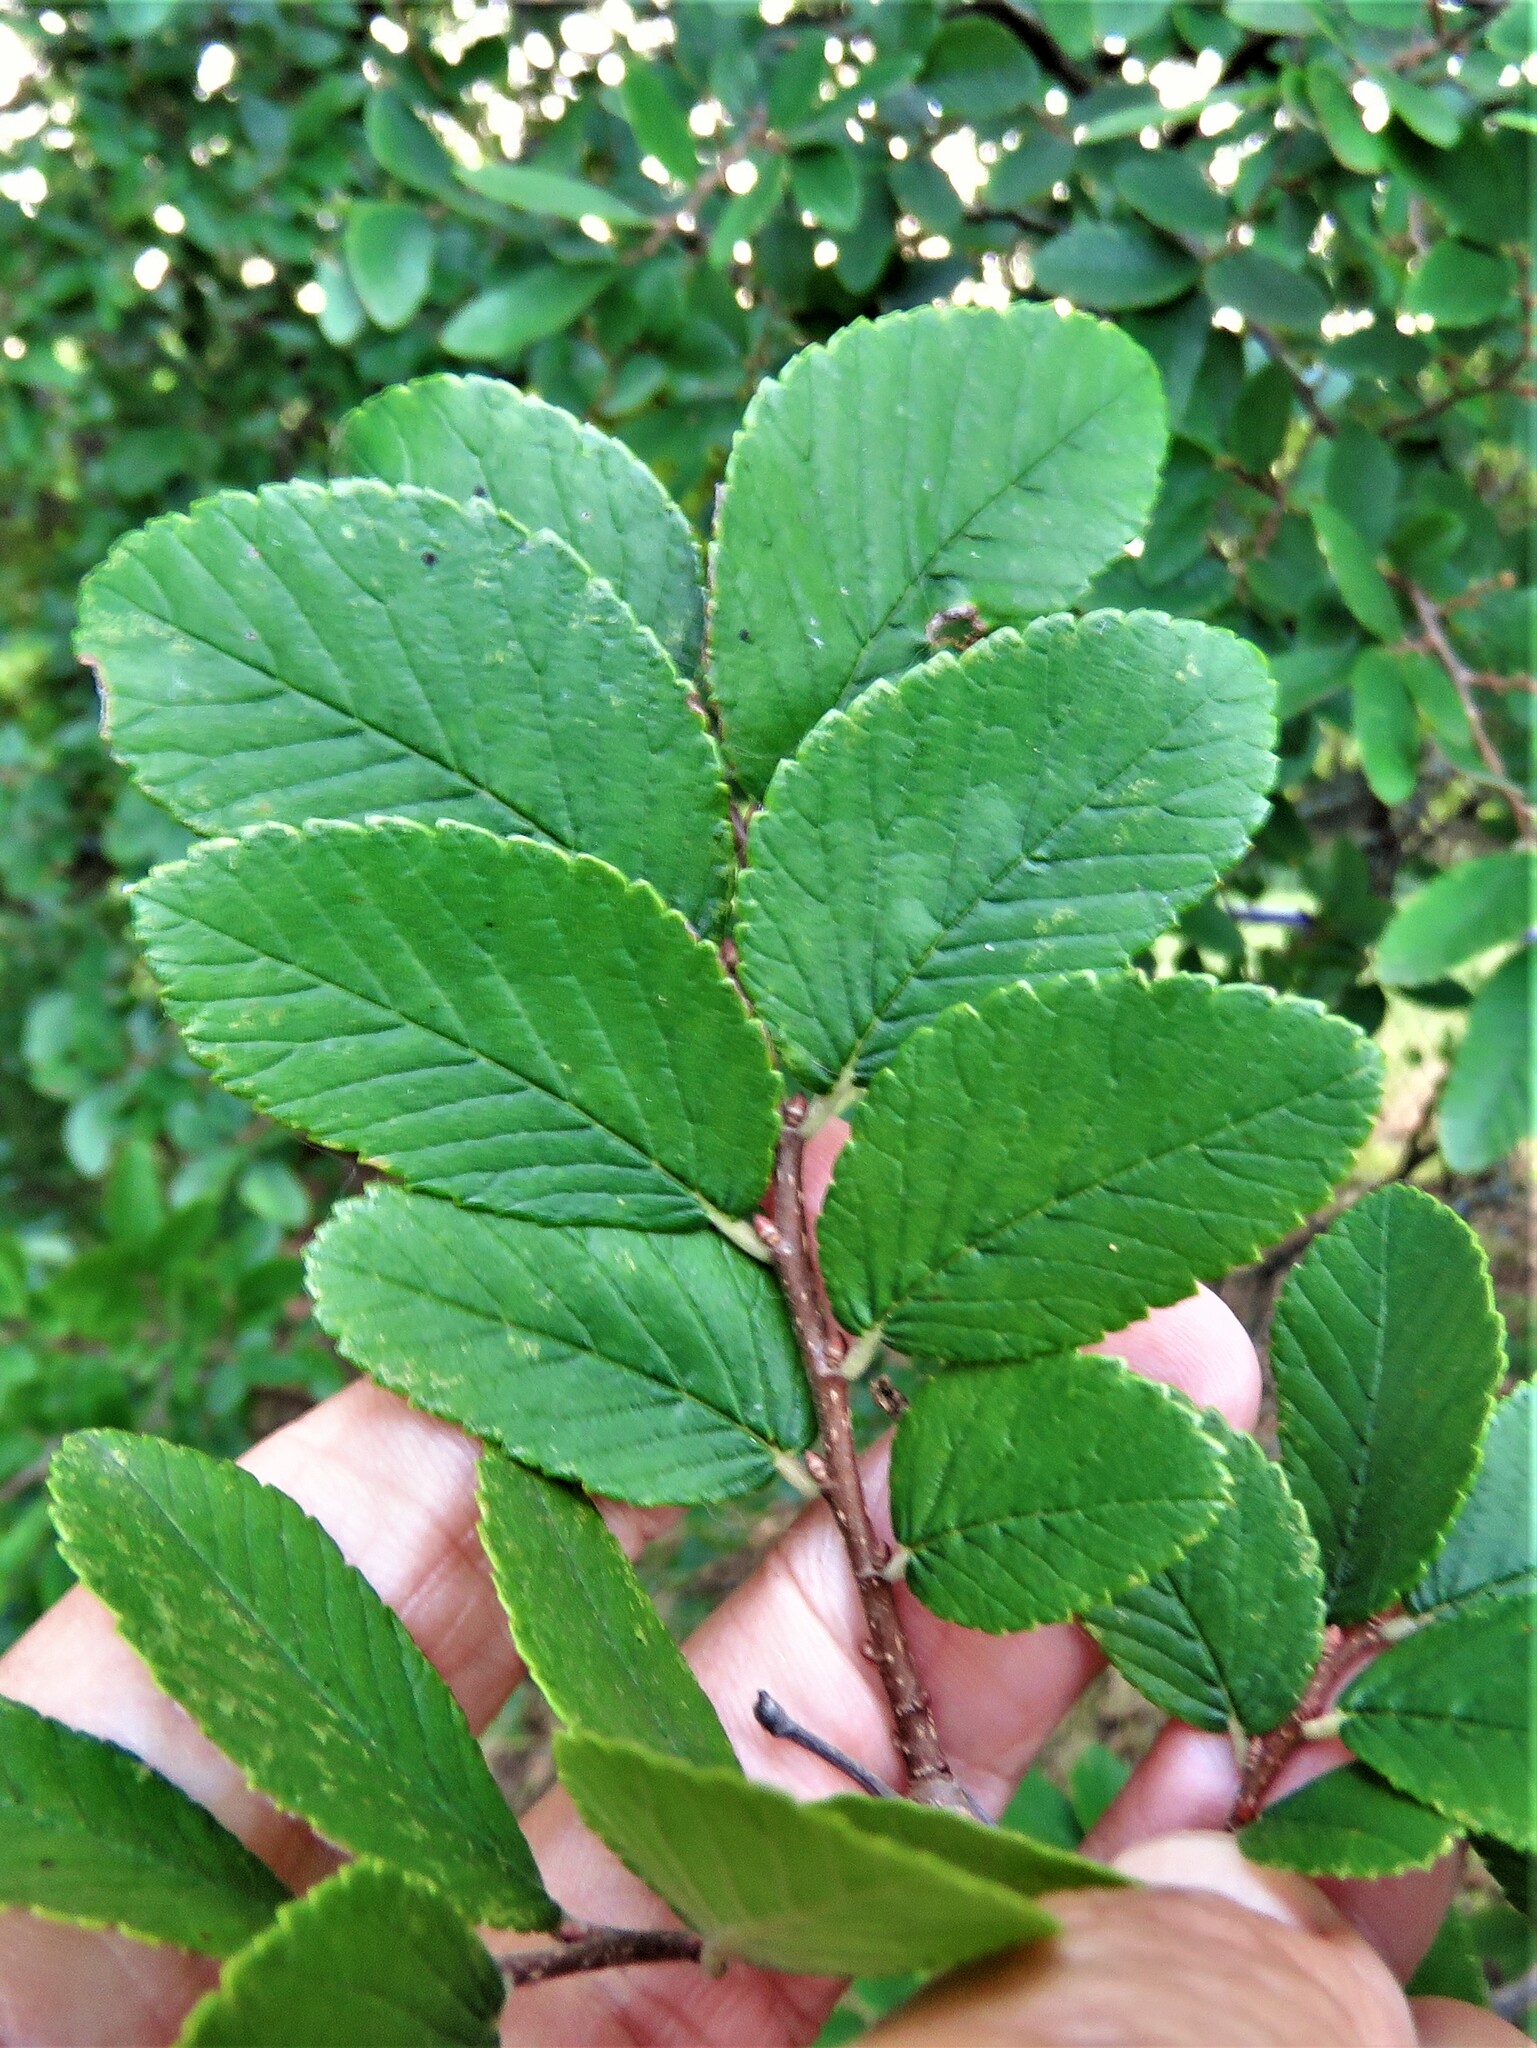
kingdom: Plantae
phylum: Tracheophyta
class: Magnoliopsida
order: Rosales
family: Ulmaceae
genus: Ulmus
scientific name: Ulmus crassifolia
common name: Basket elm
